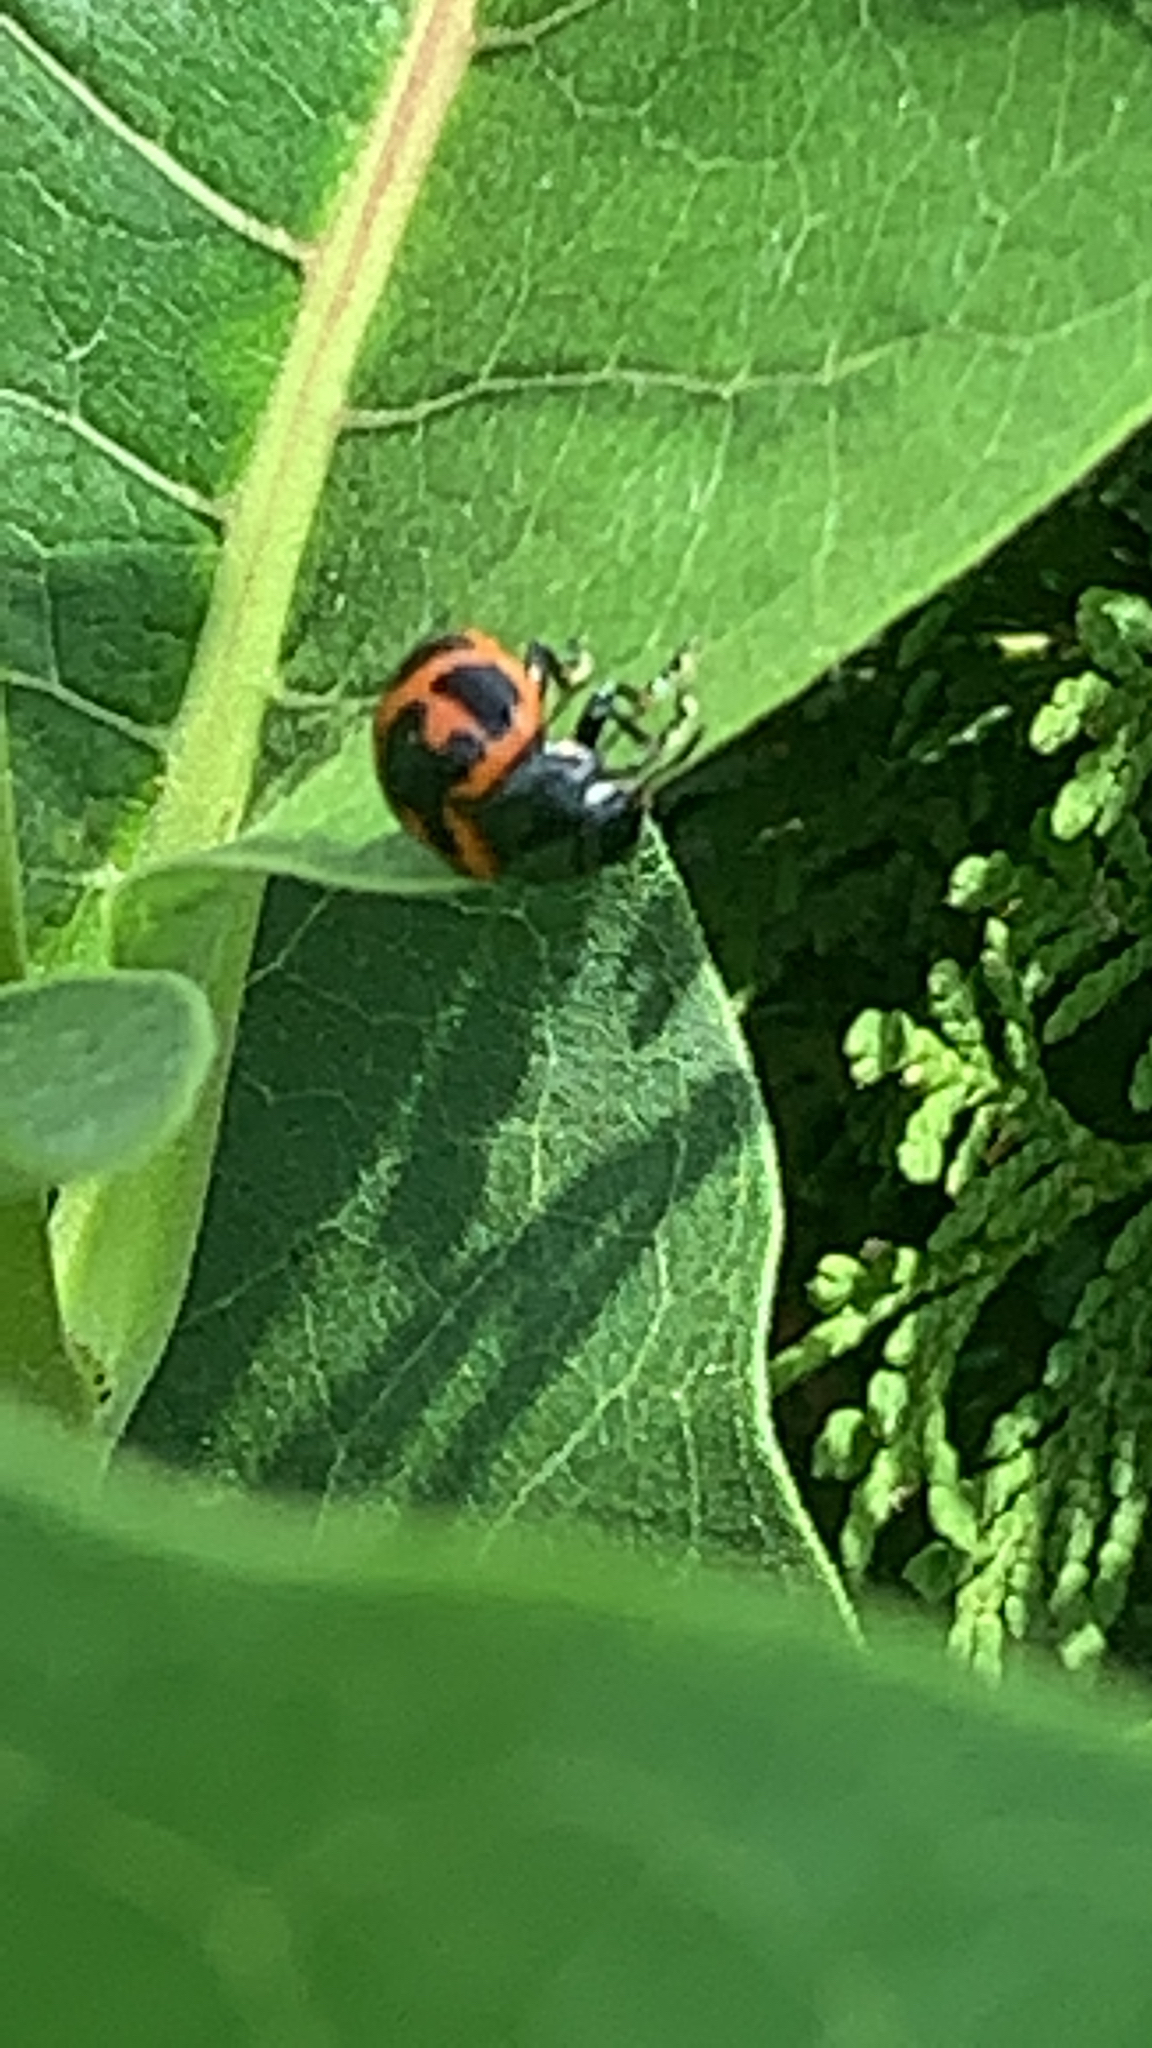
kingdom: Animalia
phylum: Arthropoda
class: Insecta
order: Coleoptera
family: Chrysomelidae
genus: Labidomera
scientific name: Labidomera clivicollis
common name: Swamp milkweed leaf beetle
